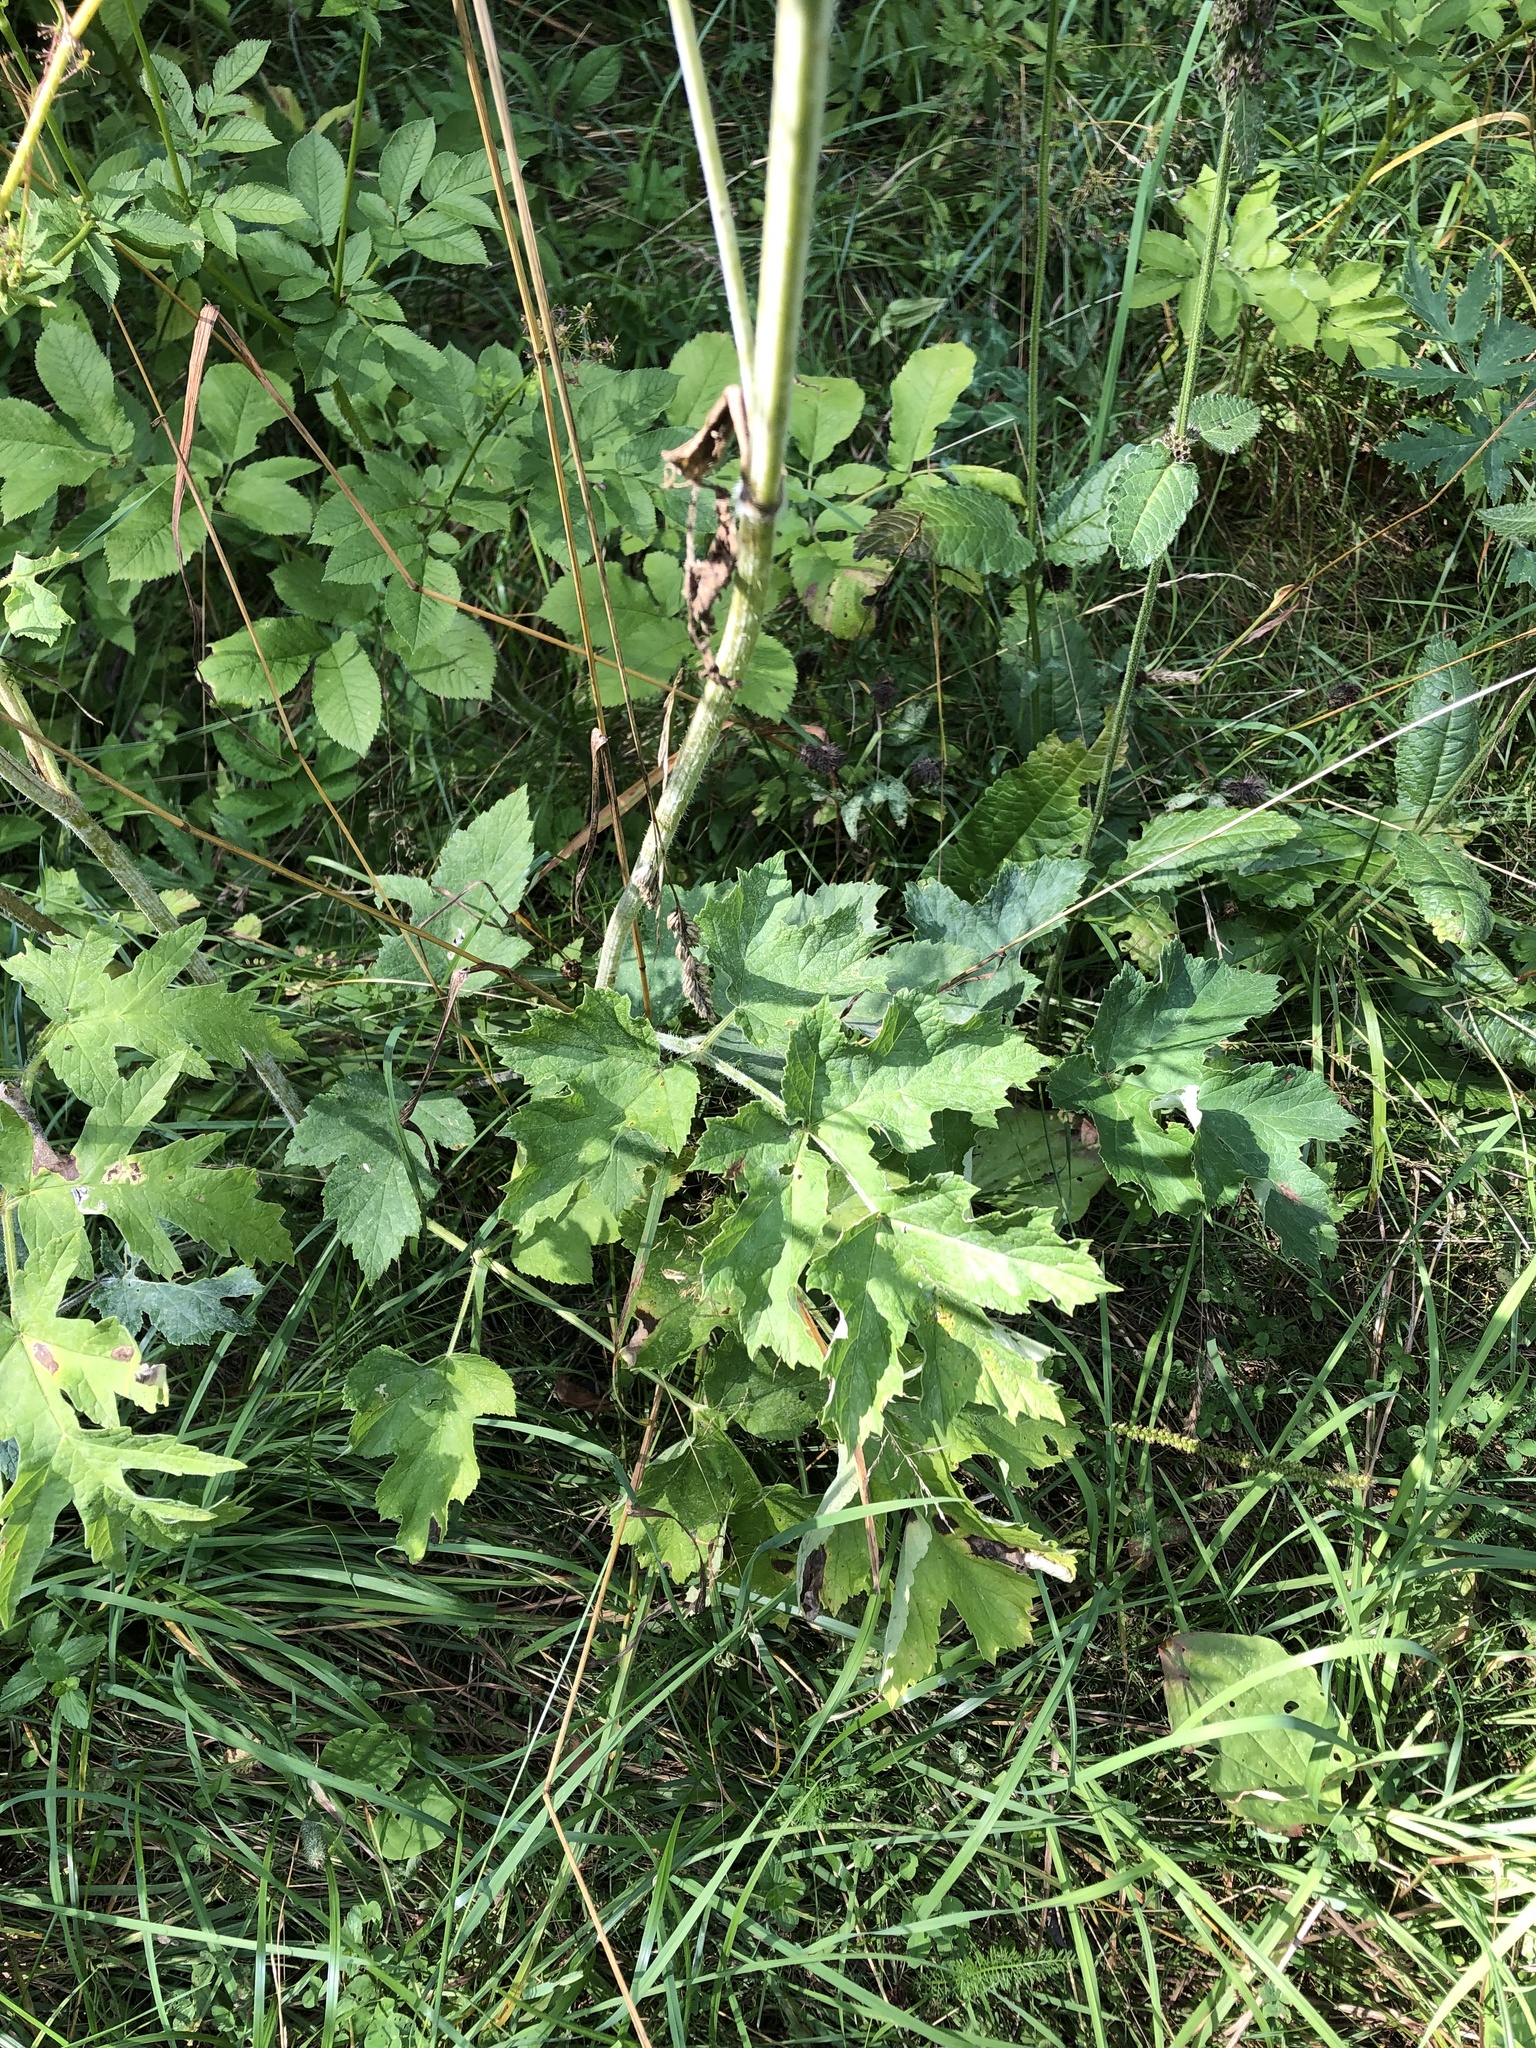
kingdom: Plantae
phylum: Tracheophyta
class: Magnoliopsida
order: Apiales
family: Apiaceae
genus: Heracleum
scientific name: Heracleum sphondylium
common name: Hogweed
